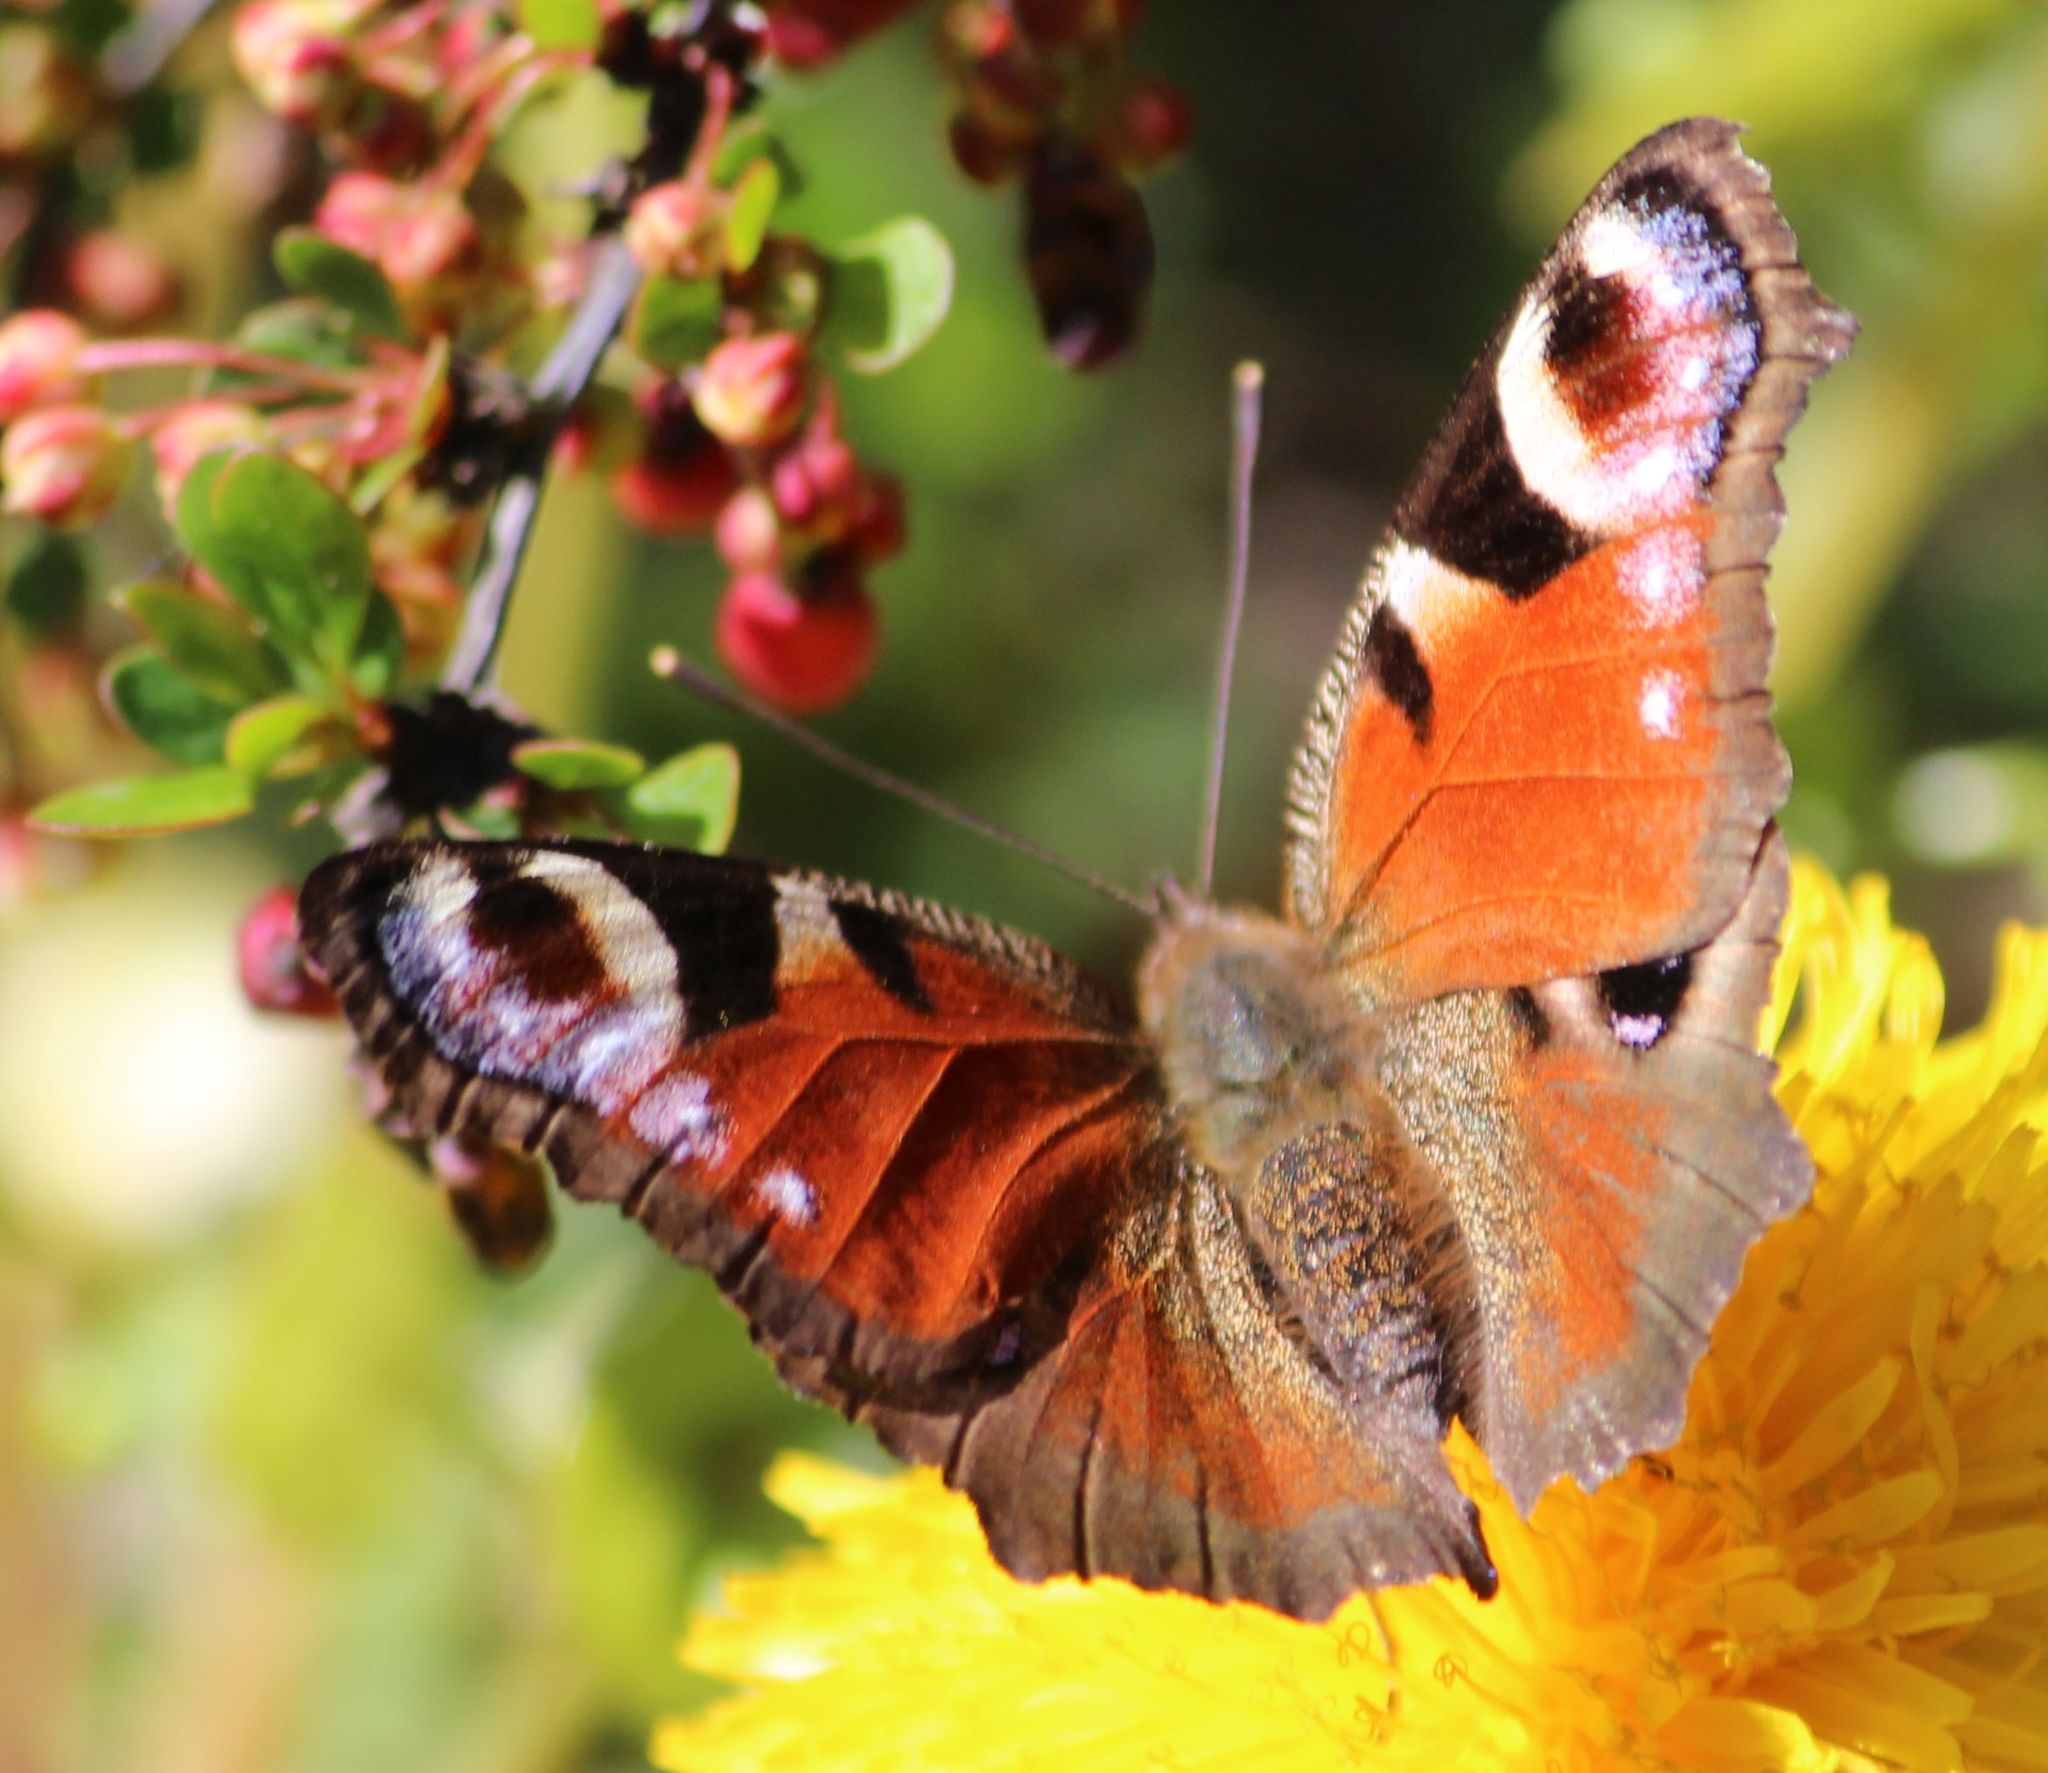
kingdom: Animalia
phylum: Arthropoda
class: Insecta
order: Lepidoptera
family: Nymphalidae
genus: Aglais
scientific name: Aglais io
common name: Peacock
